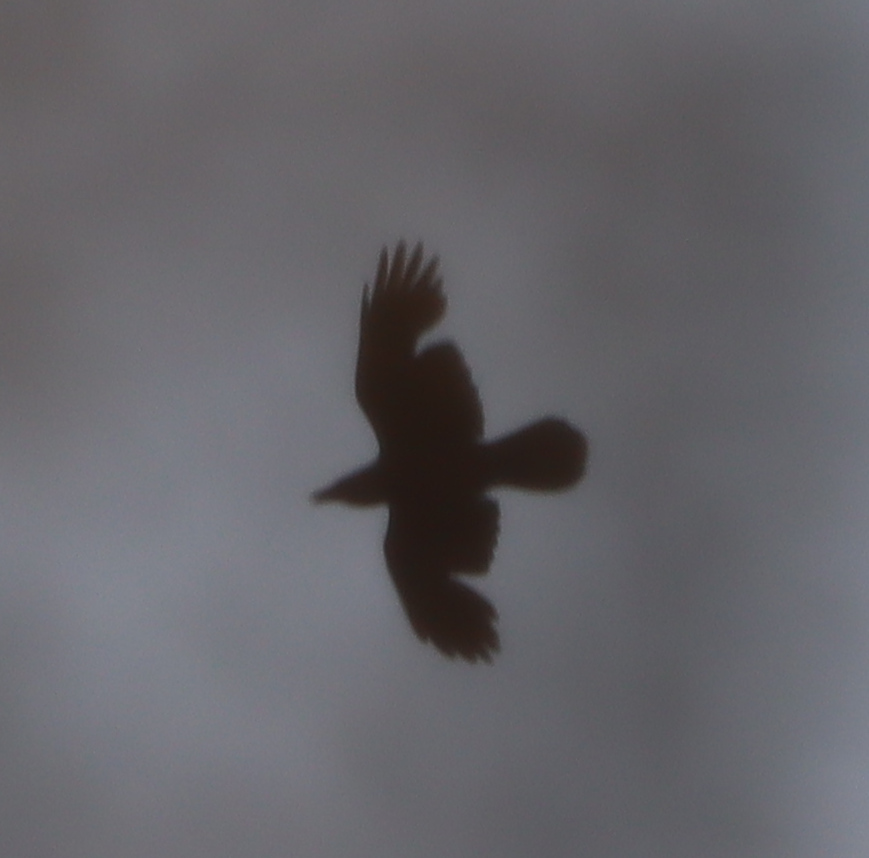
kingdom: Animalia
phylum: Chordata
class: Aves
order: Passeriformes
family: Corvidae
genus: Corvus
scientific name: Corvus corax
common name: Common raven
